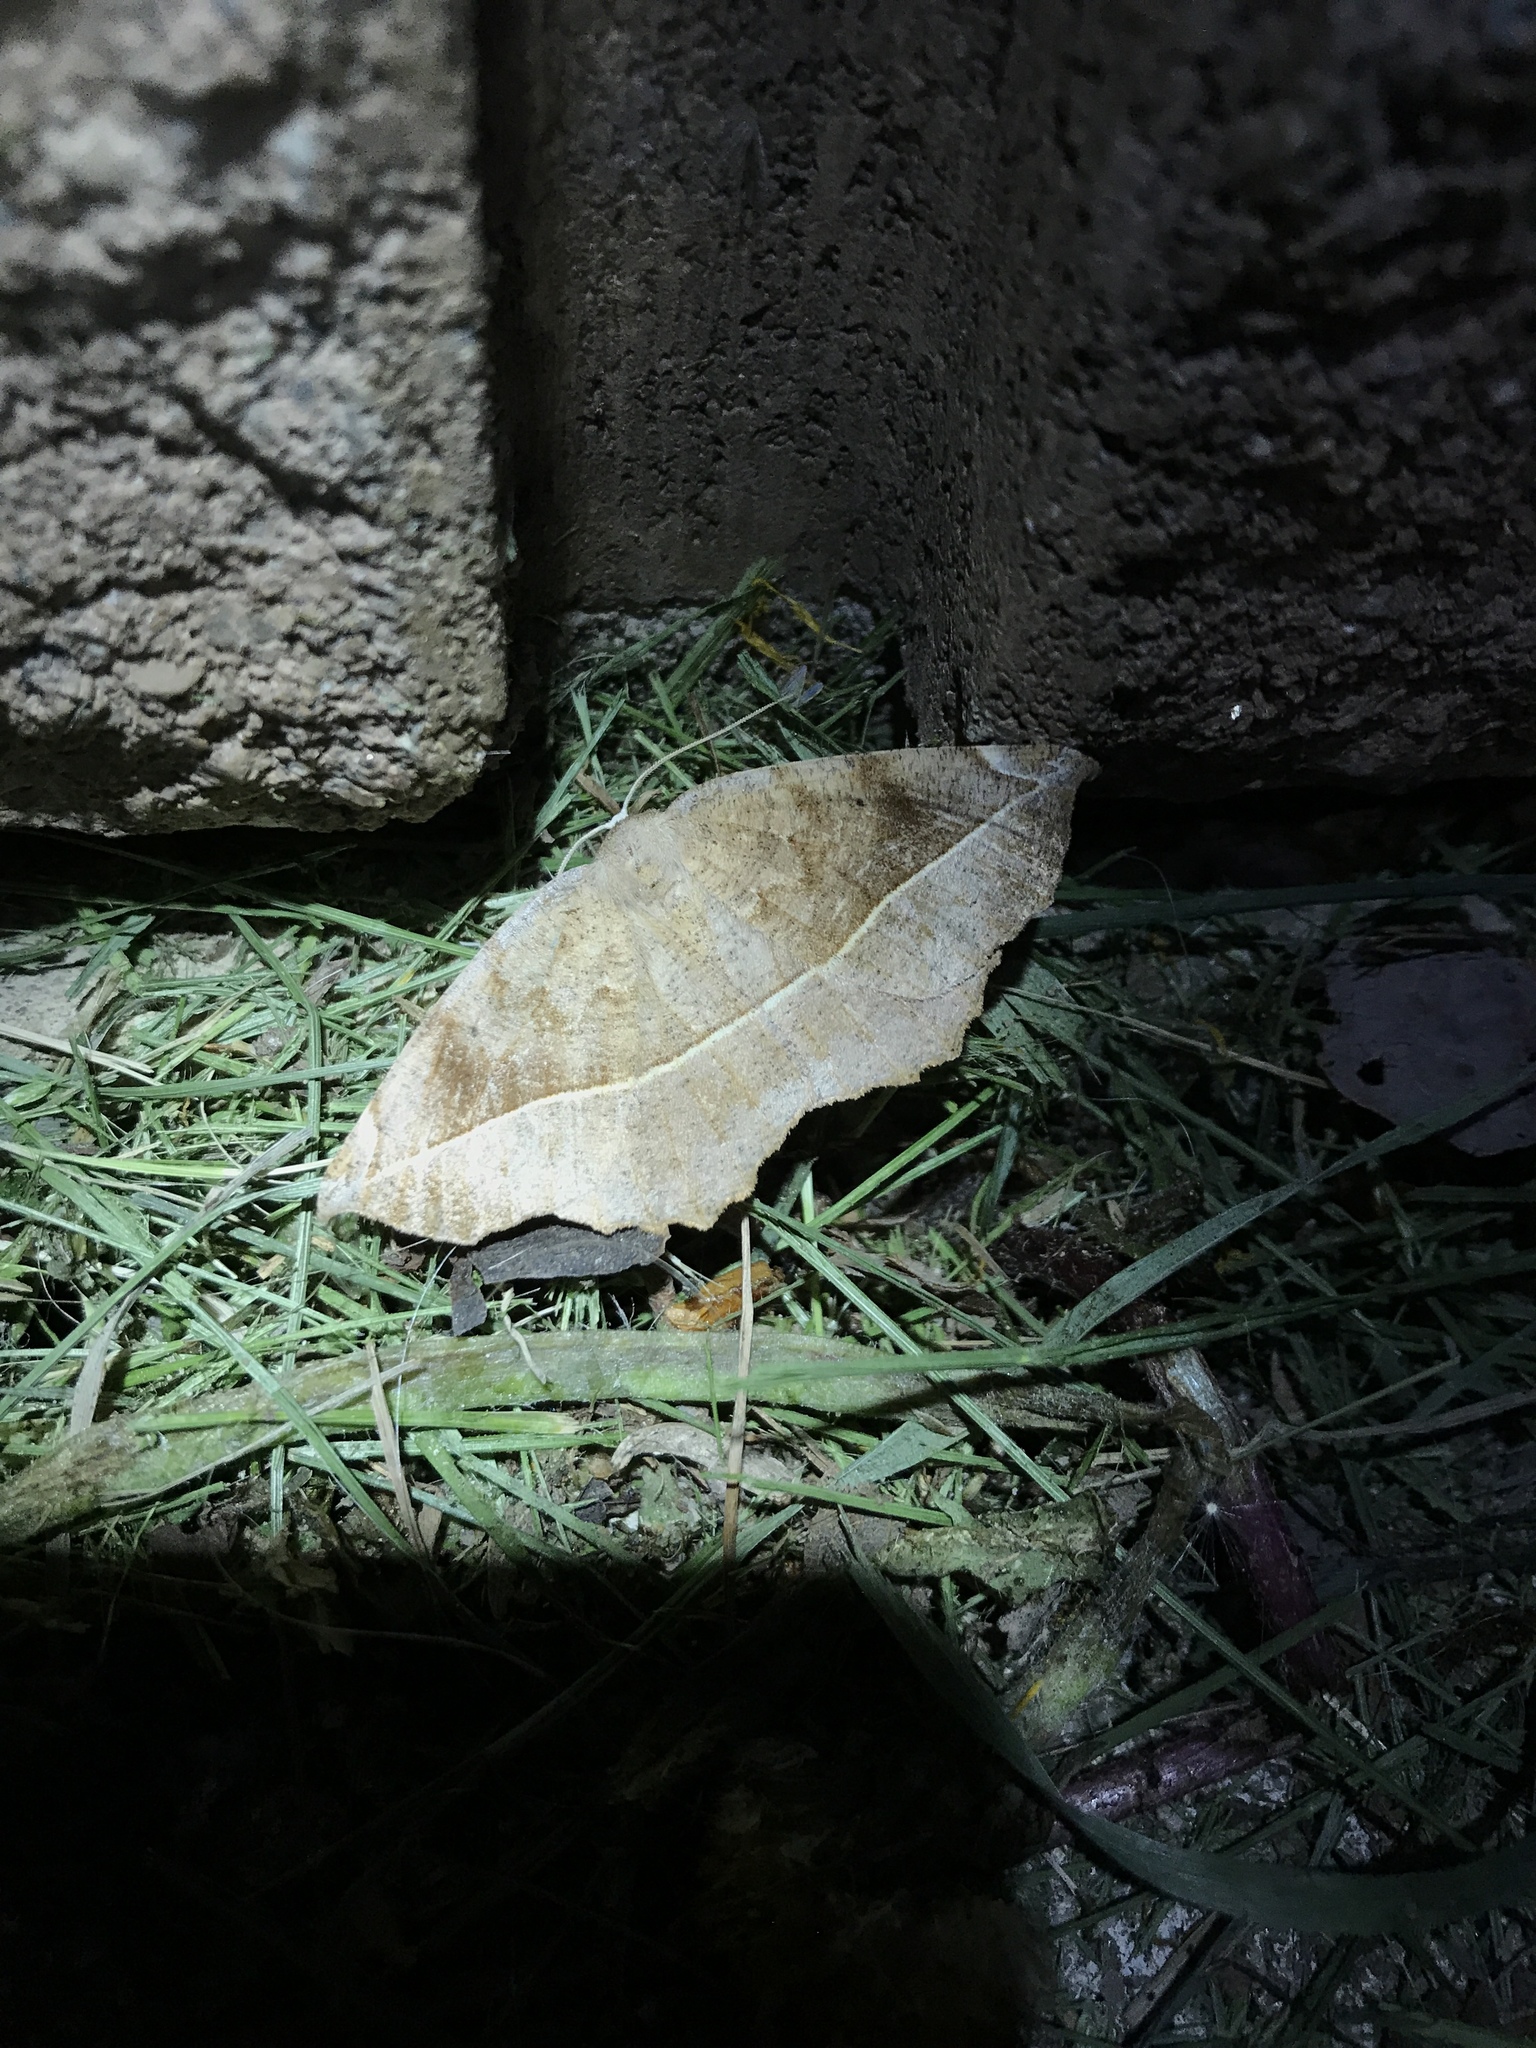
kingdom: Animalia
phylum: Arthropoda
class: Insecta
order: Lepidoptera
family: Geometridae
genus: Eutrapela
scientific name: Eutrapela clemataria
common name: Curved-toothed geometer
